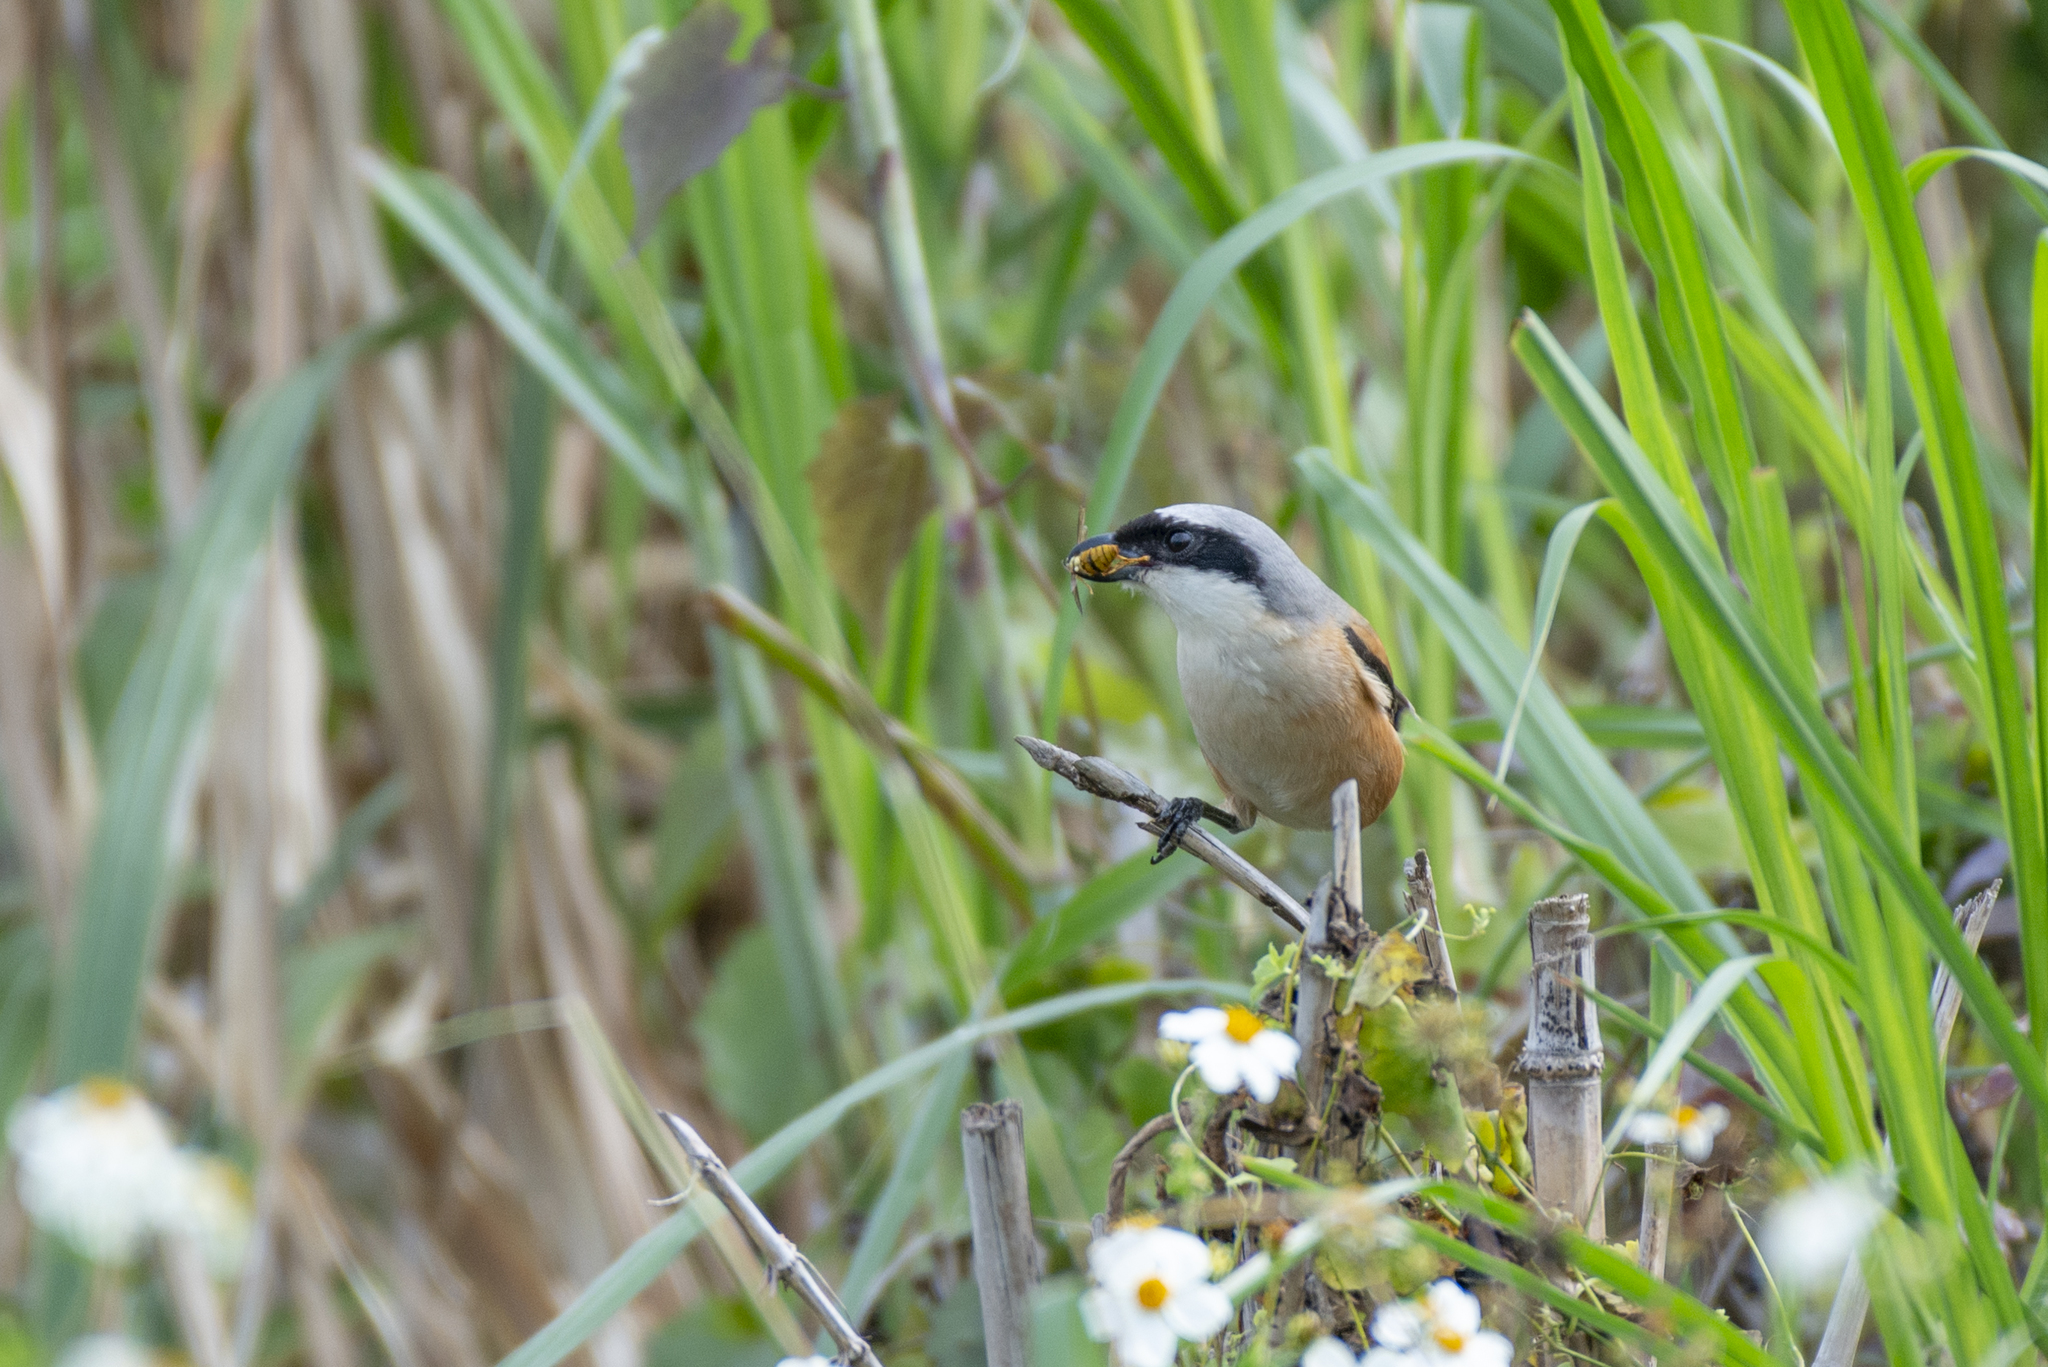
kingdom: Animalia
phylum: Chordata
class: Aves
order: Passeriformes
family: Laniidae
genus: Lanius
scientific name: Lanius schach
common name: Long-tailed shrike
